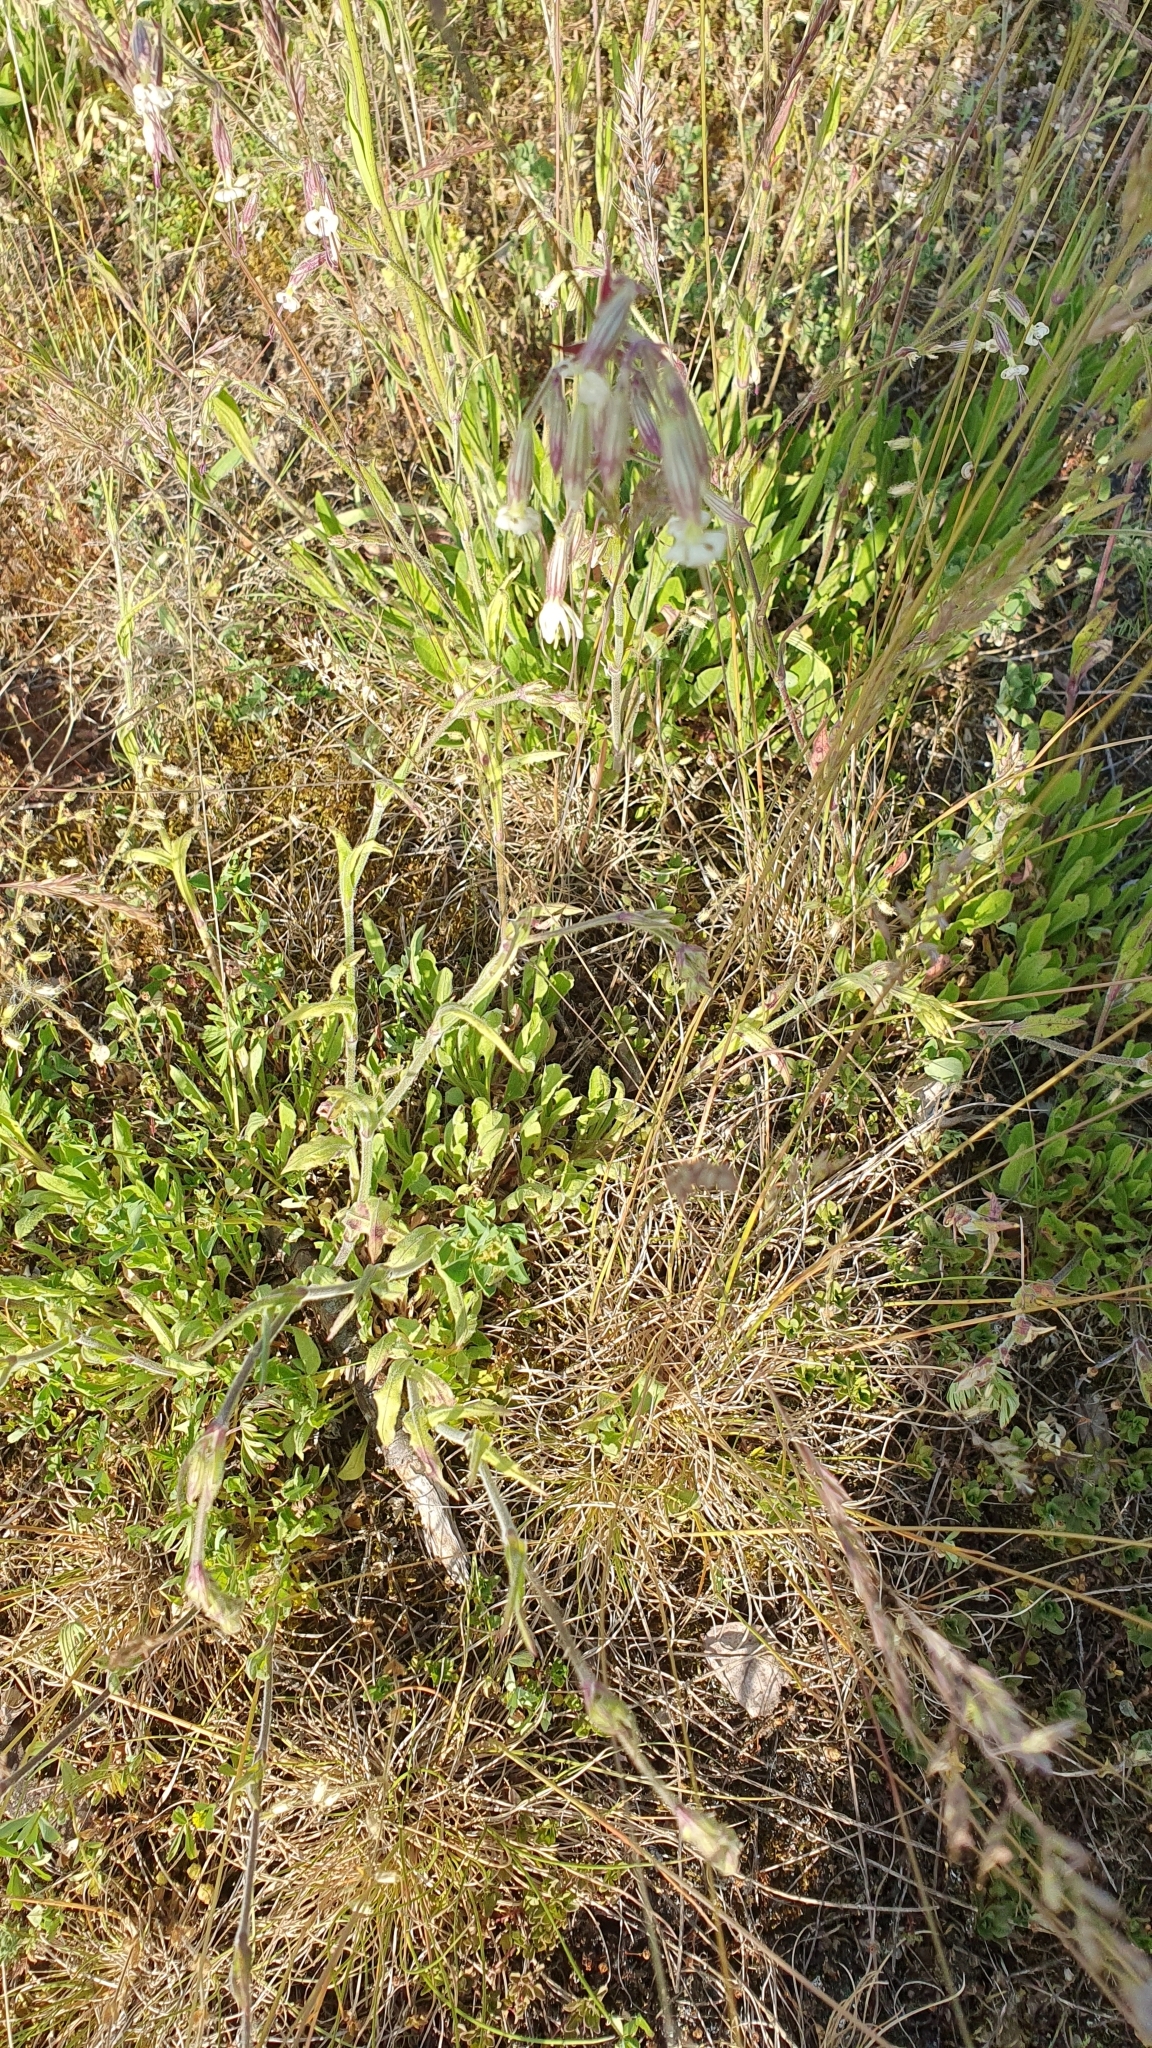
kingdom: Plantae
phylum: Tracheophyta
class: Magnoliopsida
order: Caryophyllales
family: Caryophyllaceae
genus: Silene
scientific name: Silene nutans
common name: Nottingham catchfly
